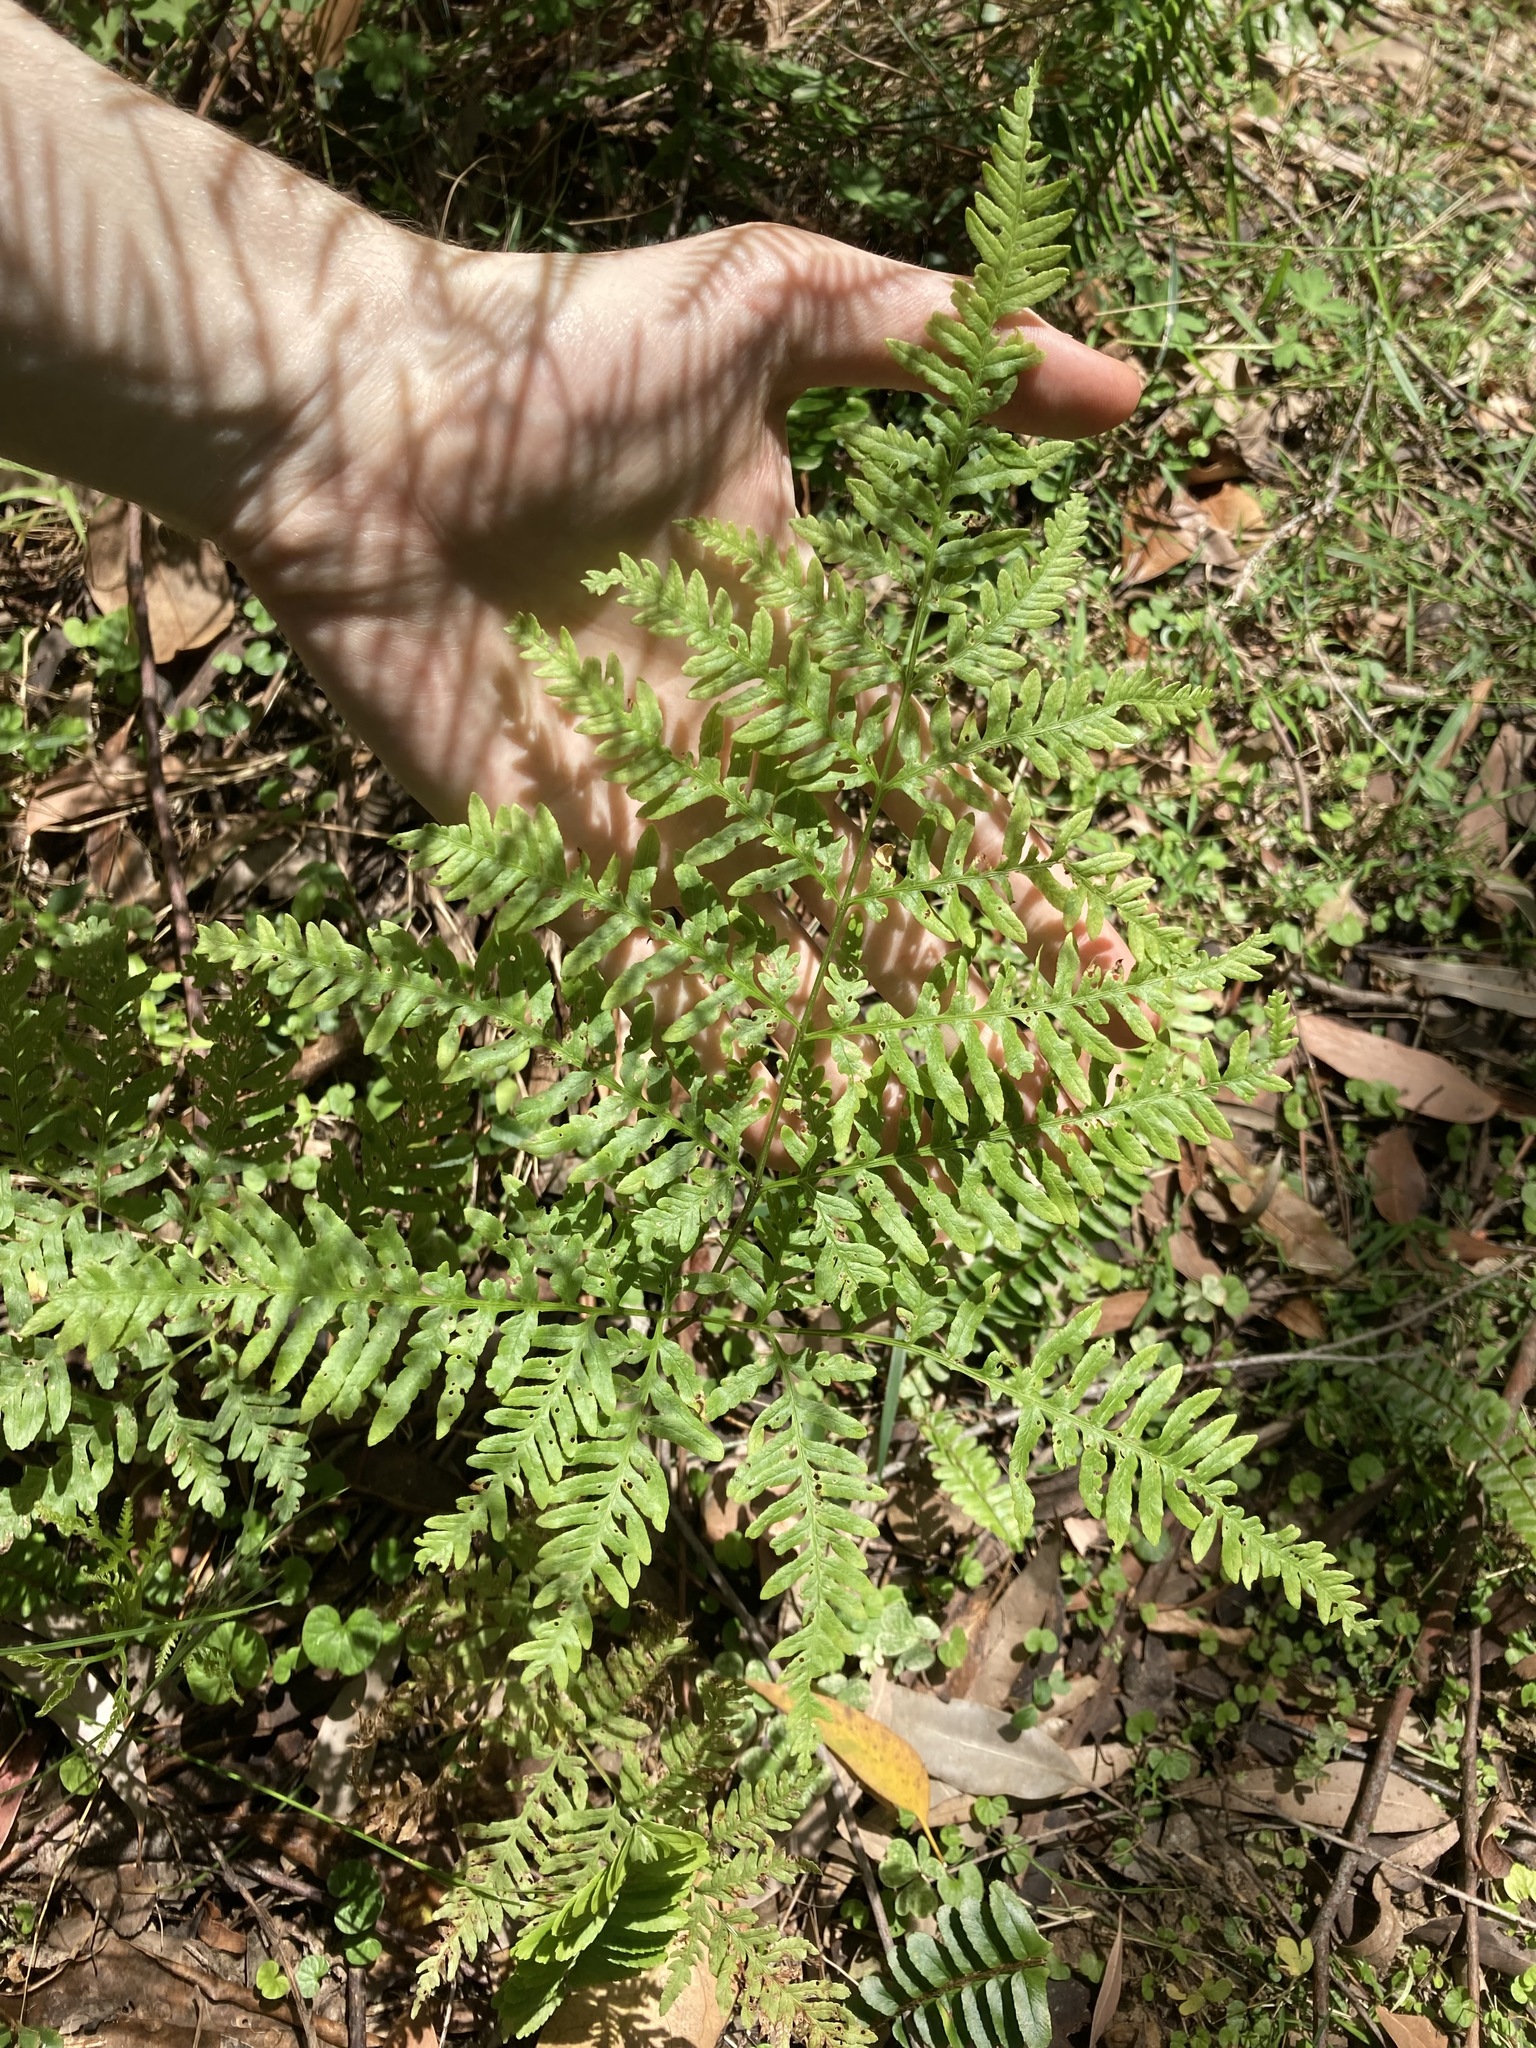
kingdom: Plantae
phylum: Tracheophyta
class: Polypodiopsida
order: Polypodiales
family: Pteridaceae
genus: Pteris
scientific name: Pteris tremula
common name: Australian brake
